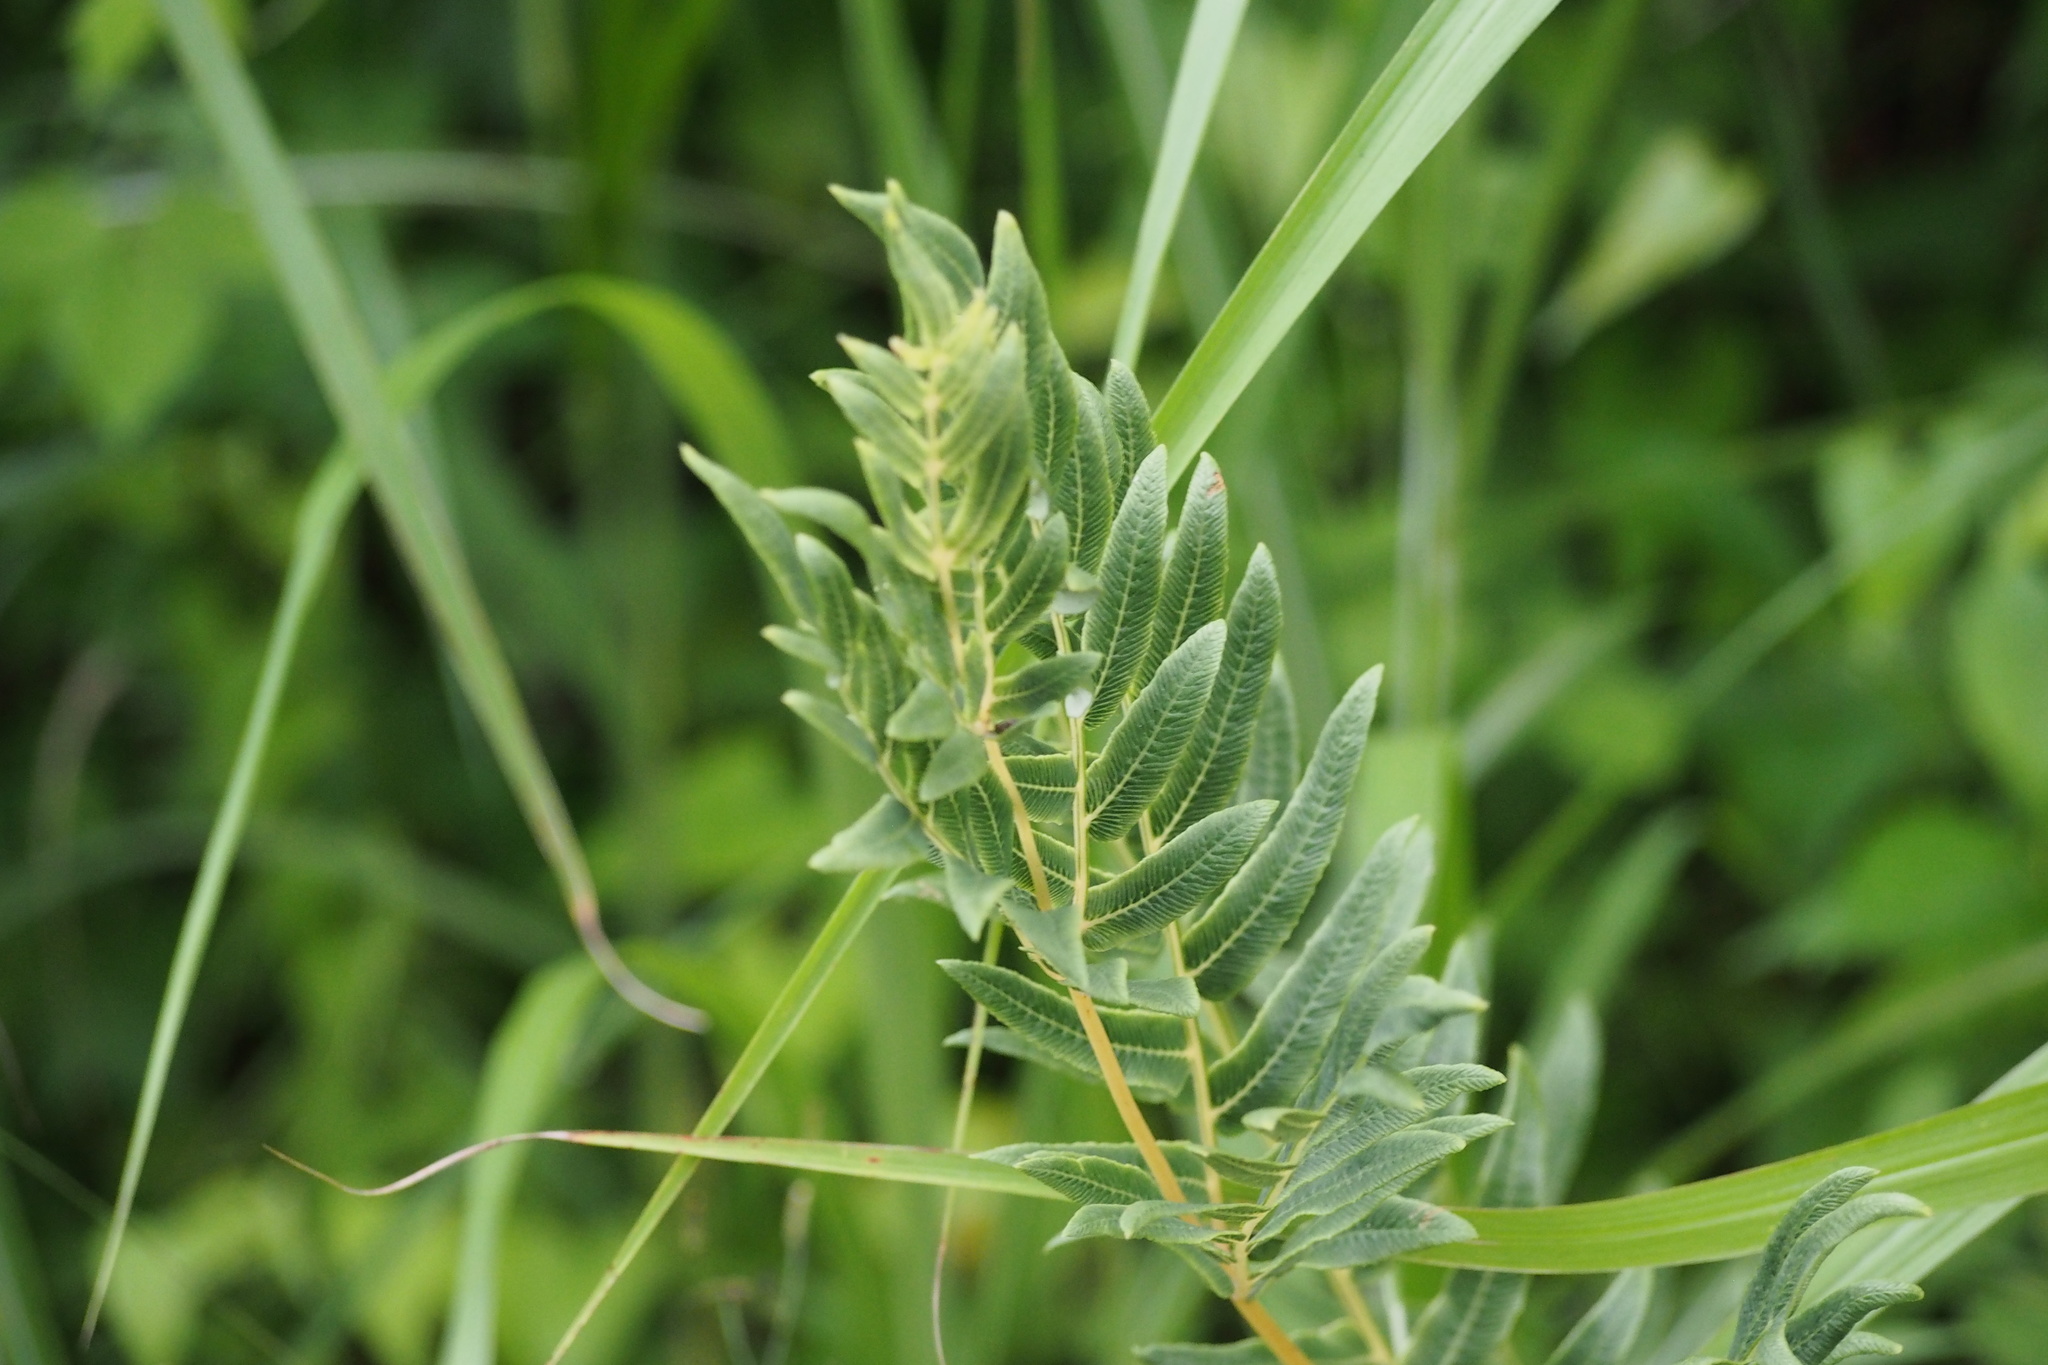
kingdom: Plantae
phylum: Tracheophyta
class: Polypodiopsida
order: Osmundales
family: Osmundaceae
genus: Osmunda
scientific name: Osmunda japonica
